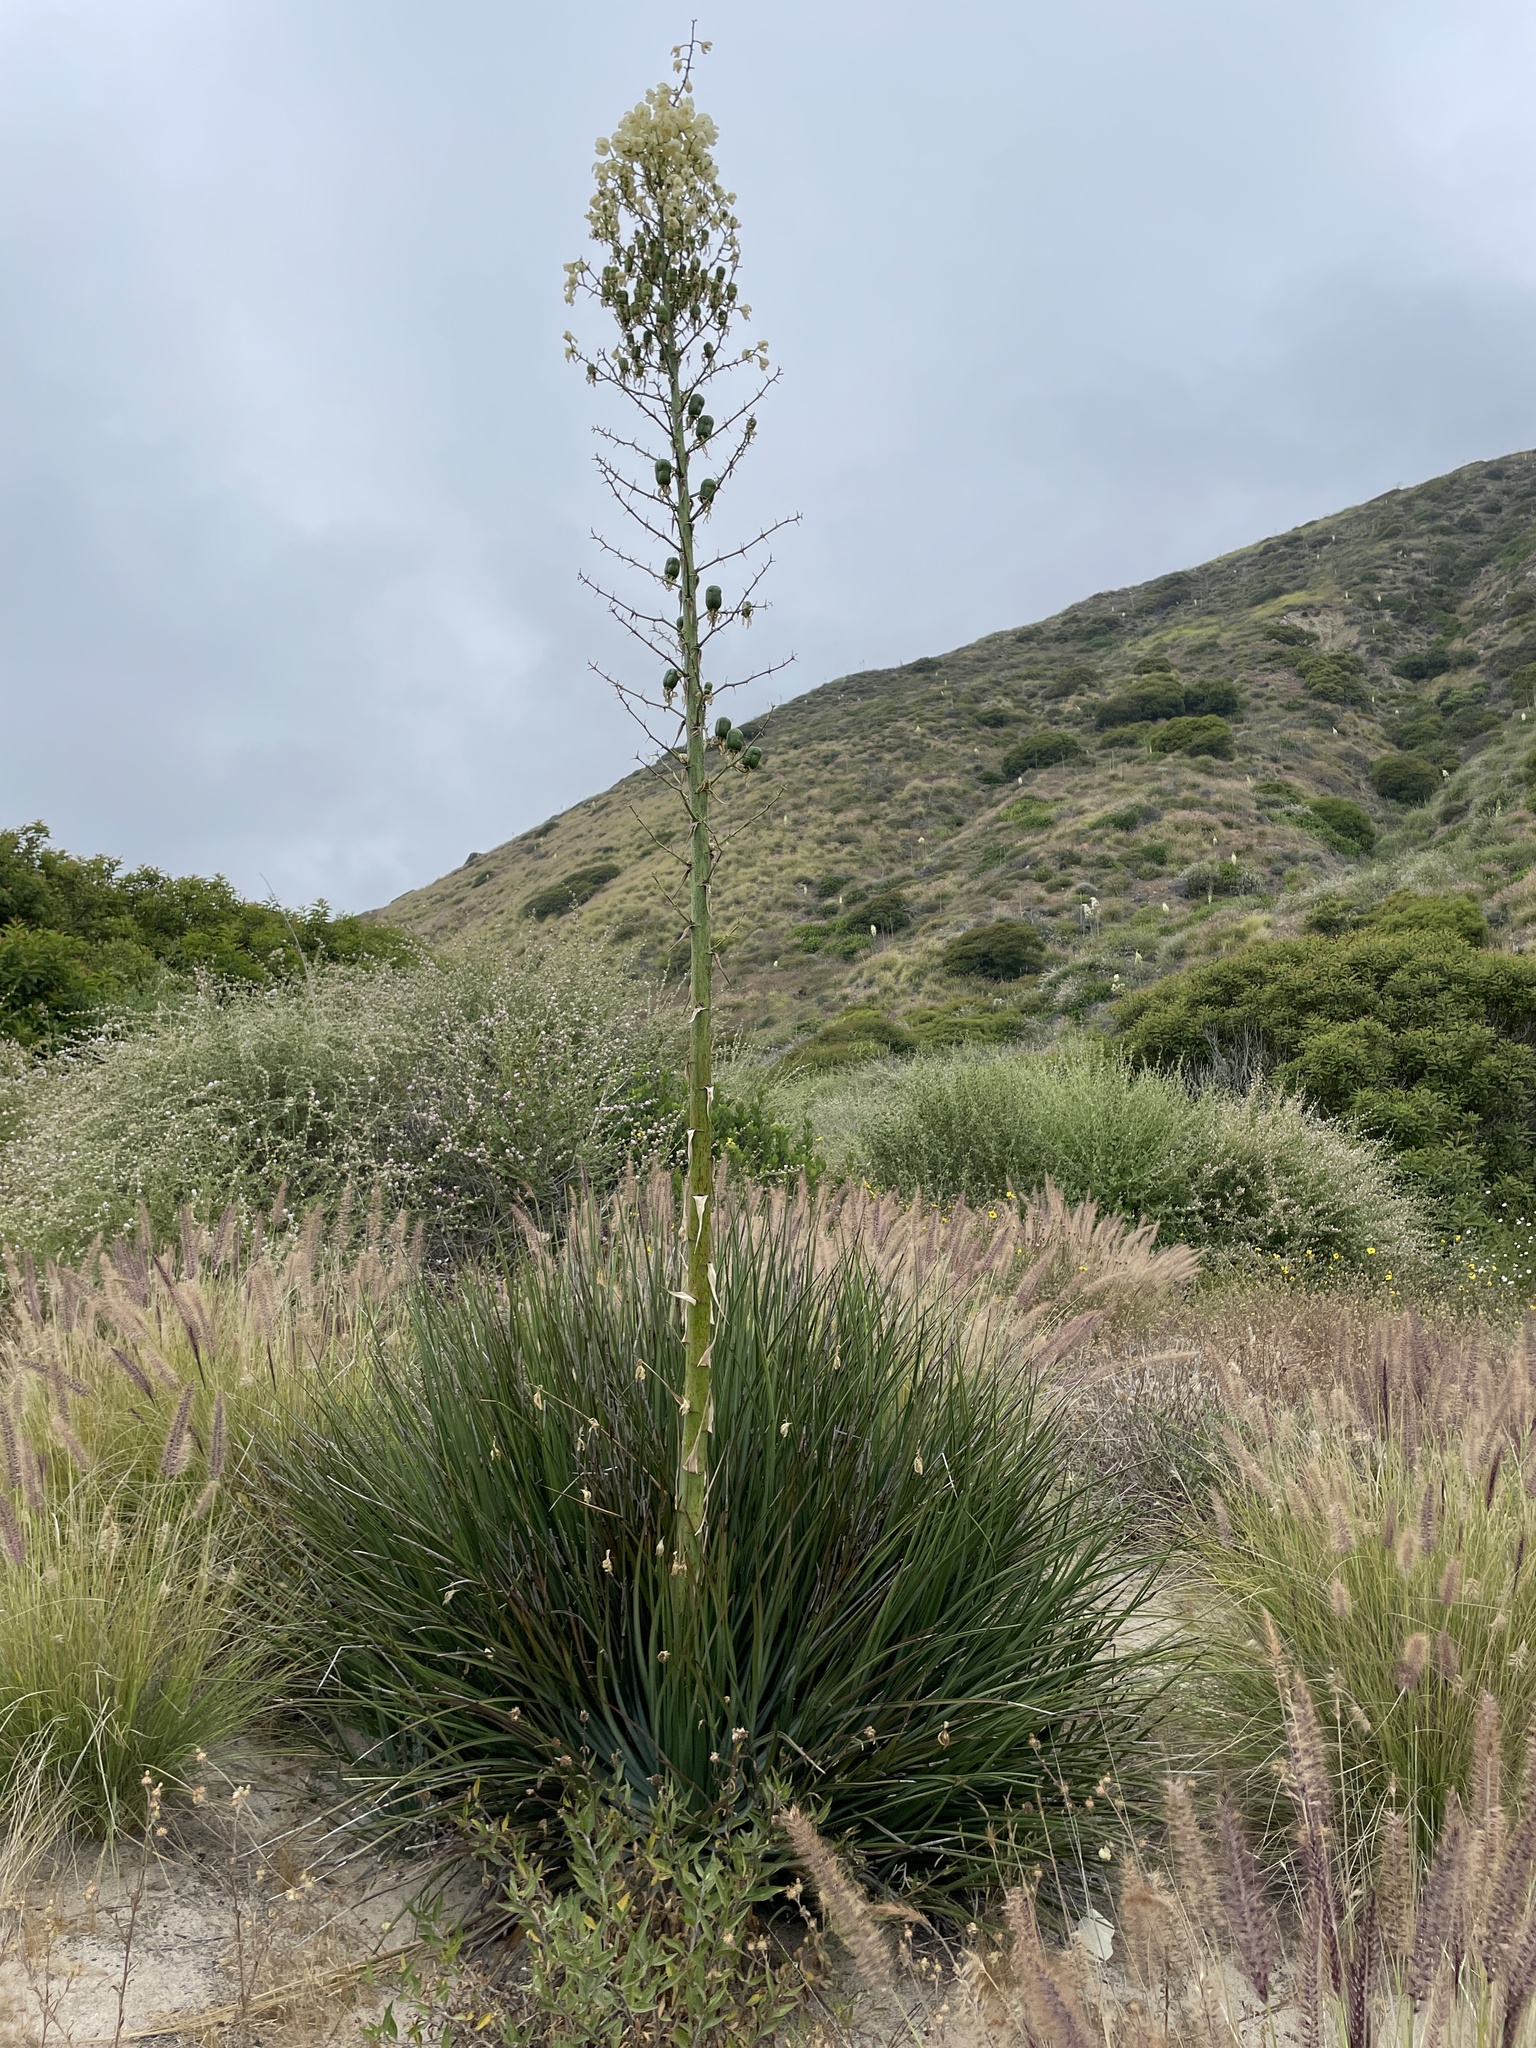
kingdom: Plantae
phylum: Tracheophyta
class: Liliopsida
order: Asparagales
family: Asparagaceae
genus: Hesperoyucca
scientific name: Hesperoyucca whipplei
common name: Our lord's-candle
